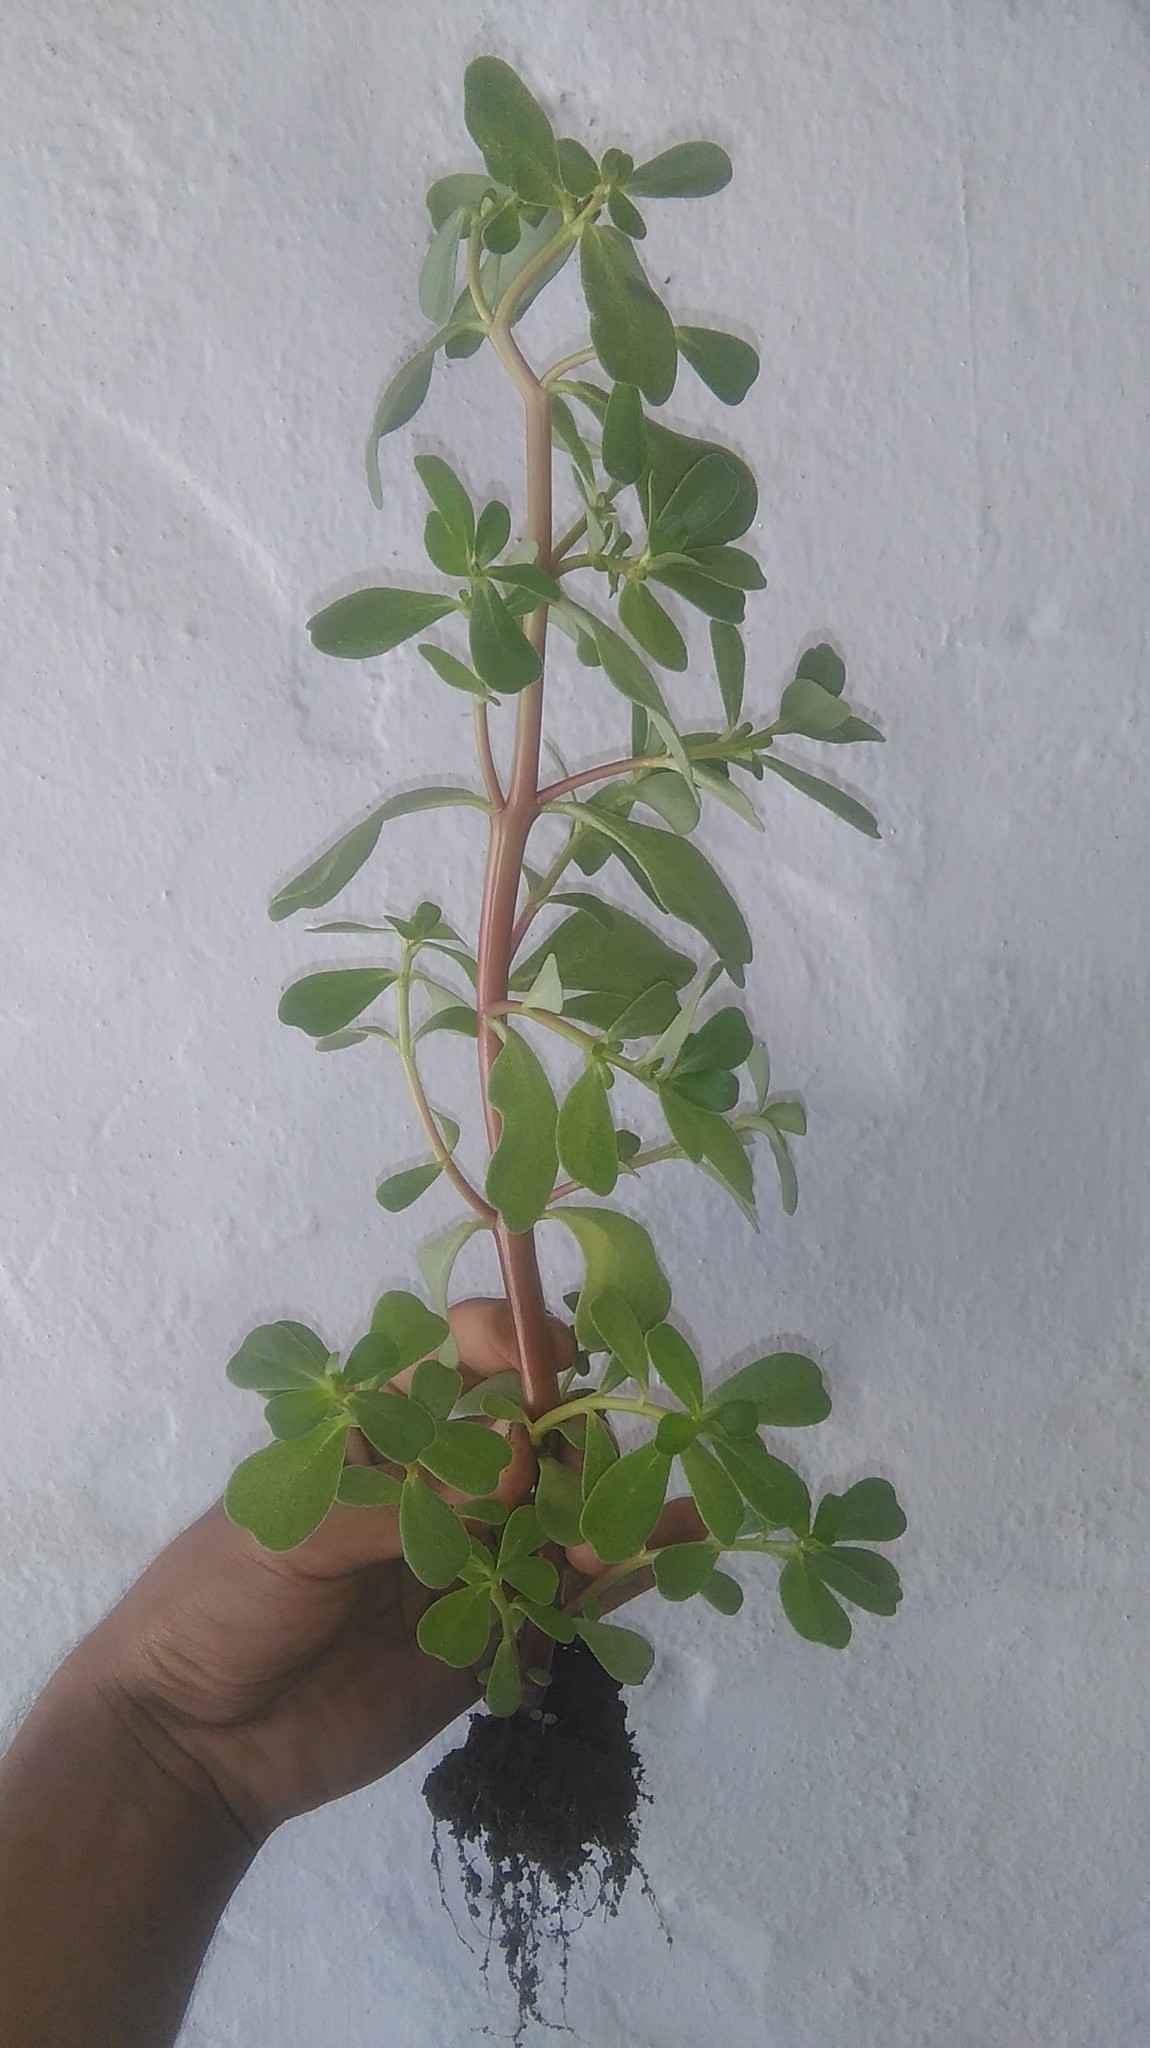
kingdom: Plantae
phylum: Tracheophyta
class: Magnoliopsida
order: Caryophyllales
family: Portulacaceae
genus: Portulaca
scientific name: Portulaca oleracea
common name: Common purslane
